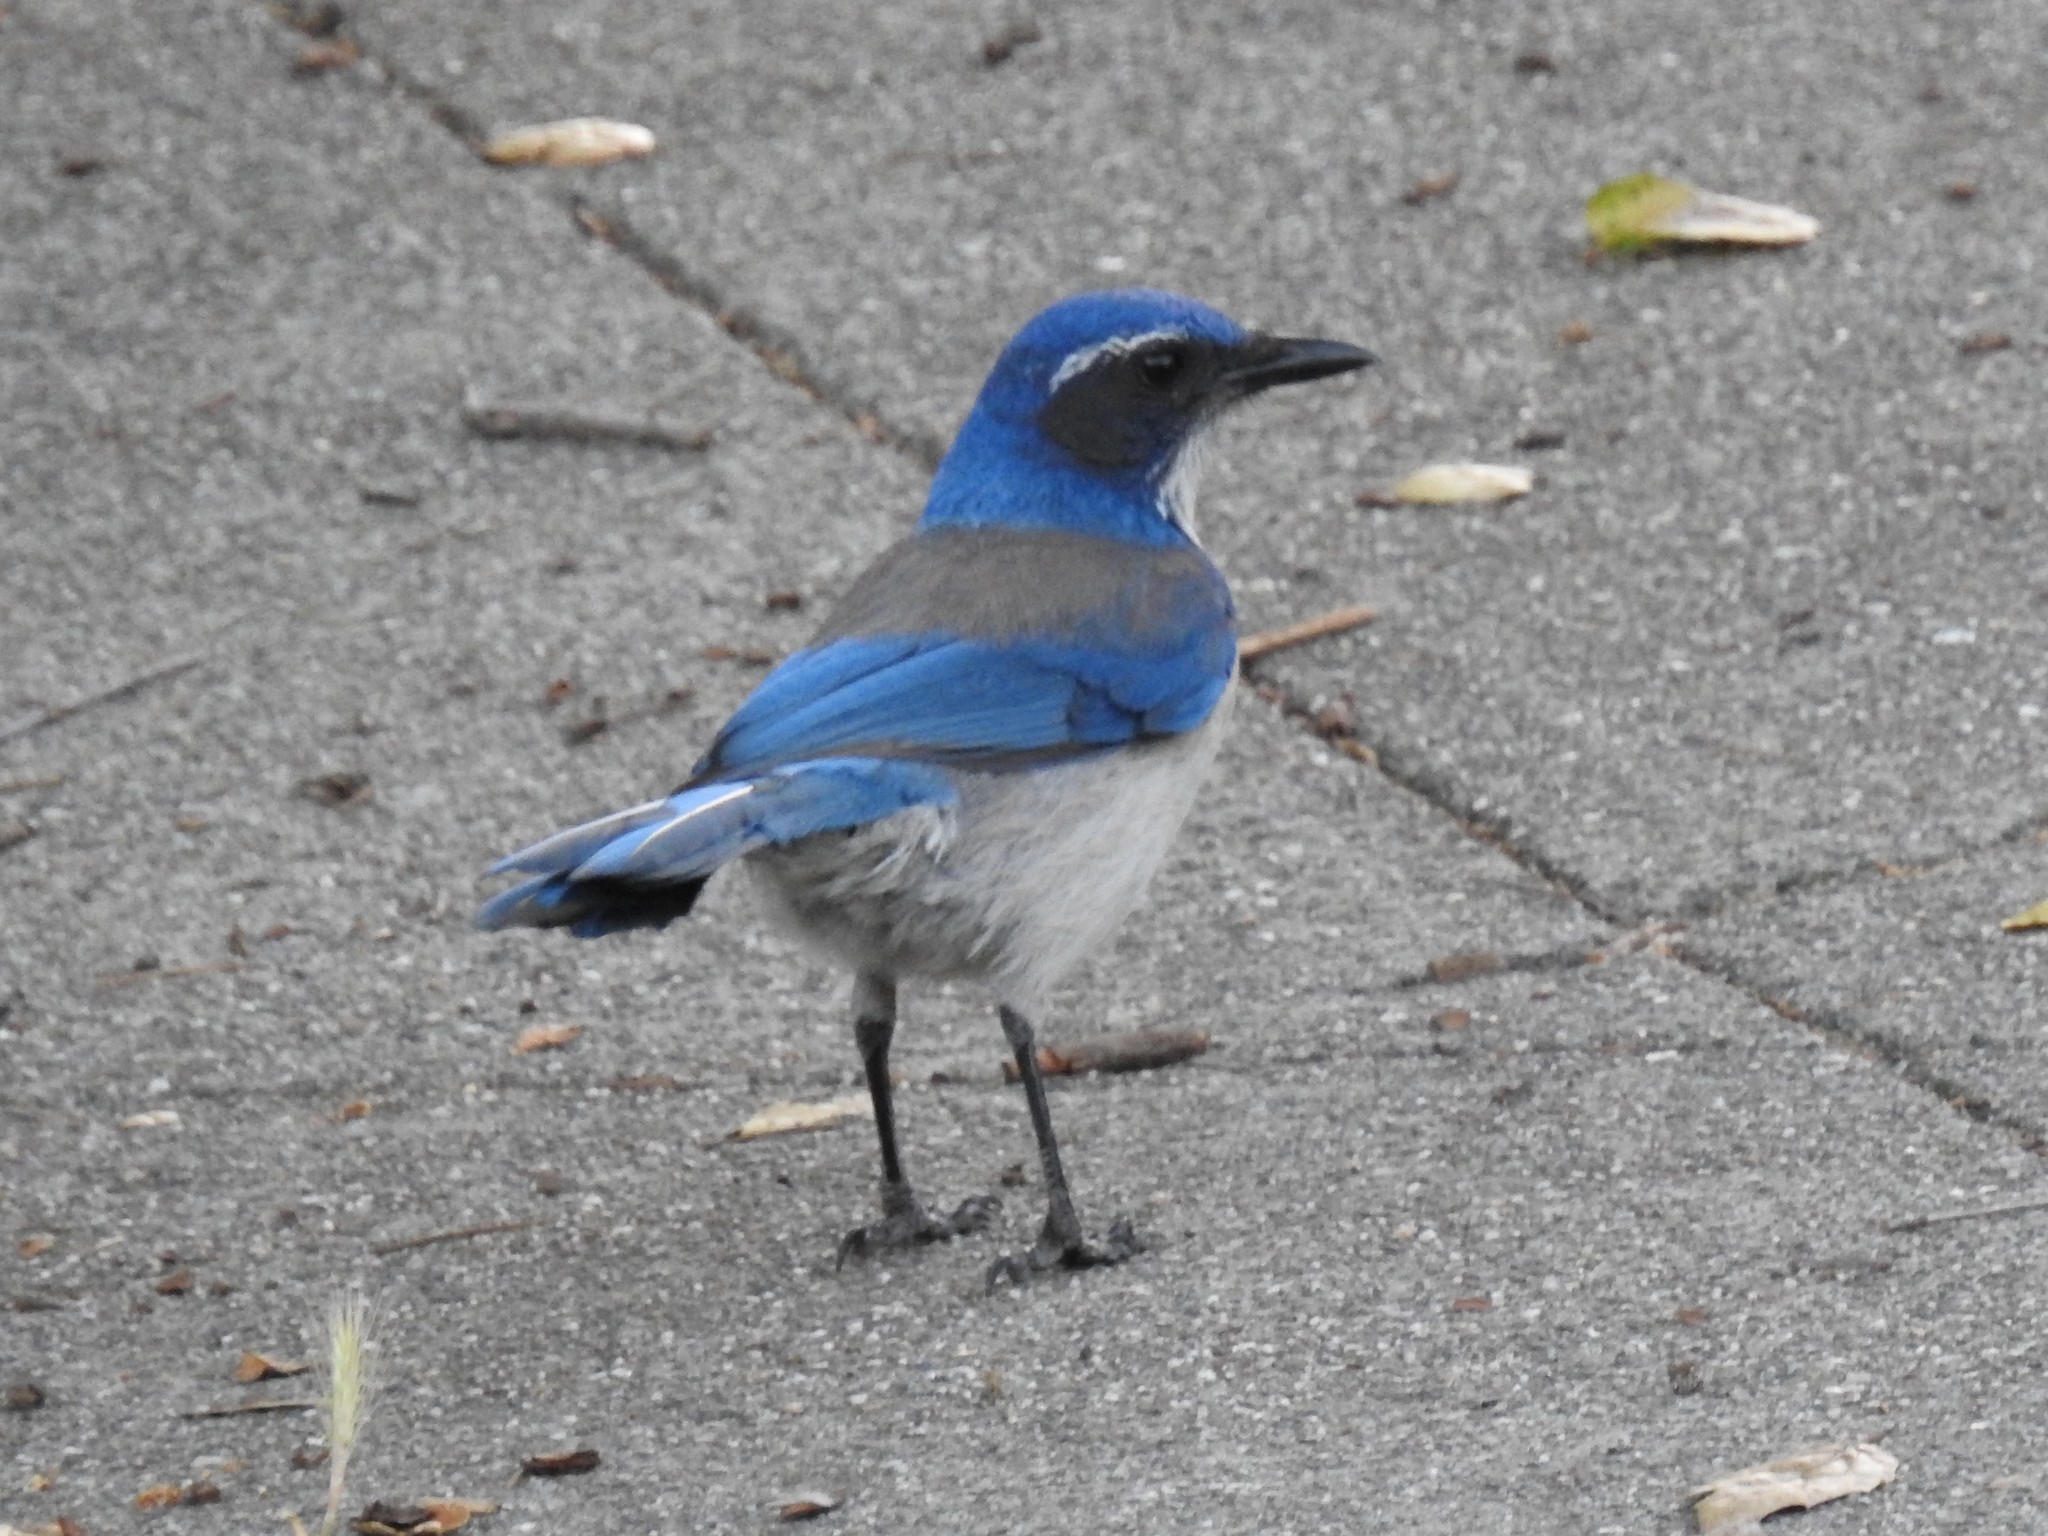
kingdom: Animalia
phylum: Chordata
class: Aves
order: Passeriformes
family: Corvidae
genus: Aphelocoma
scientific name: Aphelocoma californica
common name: California scrub-jay
